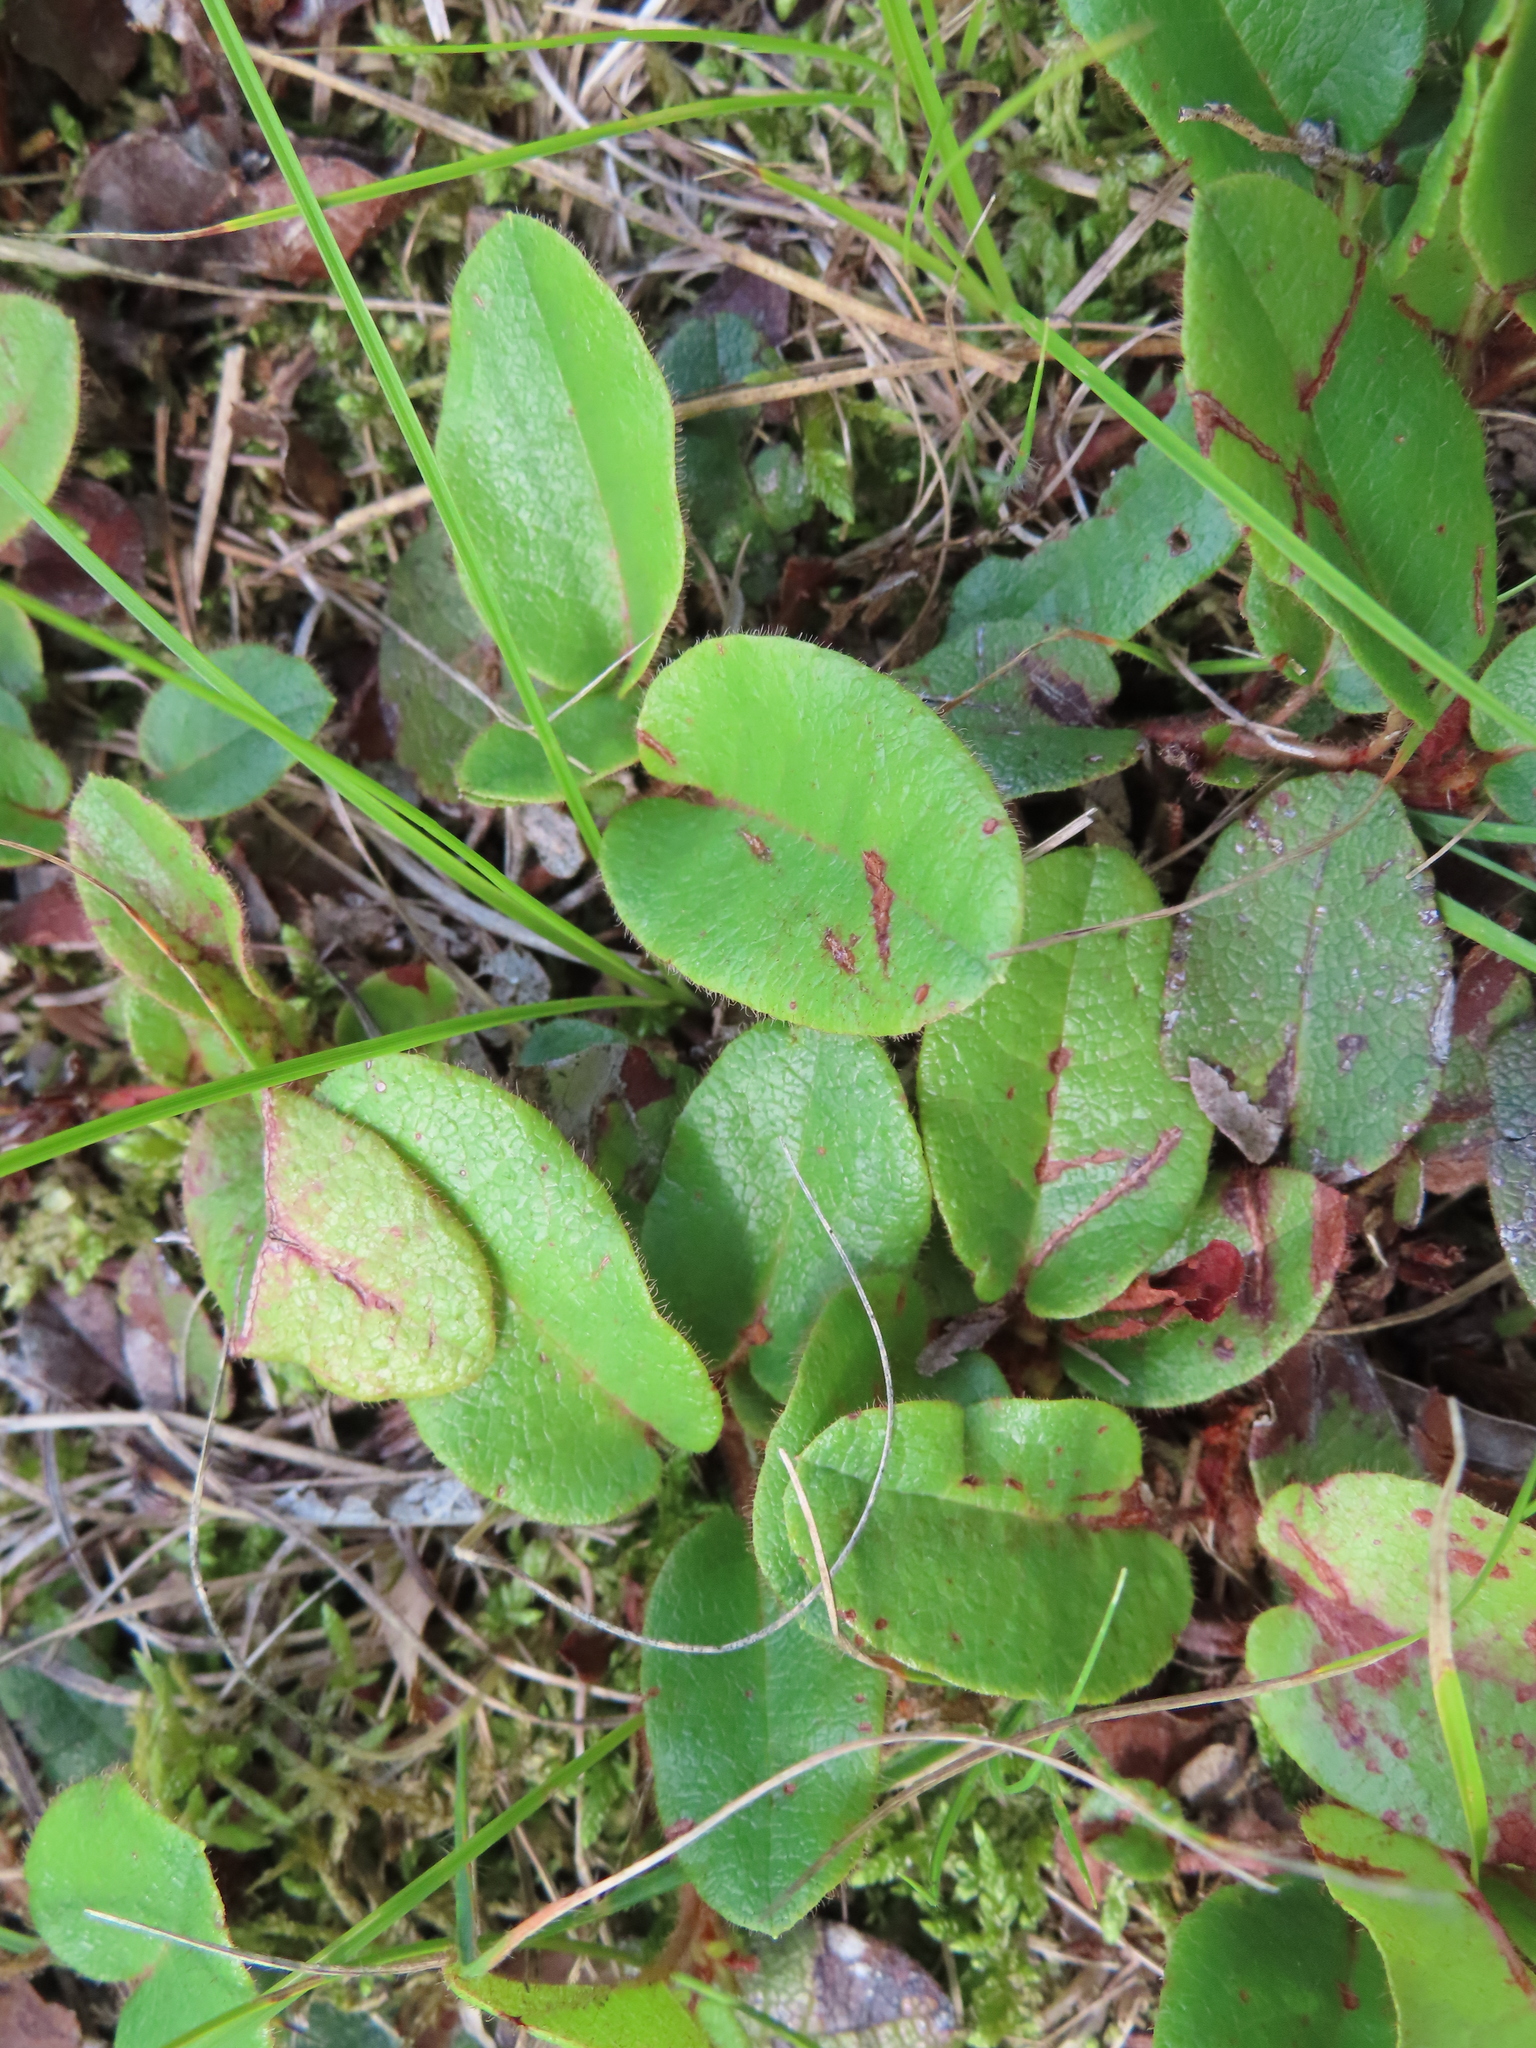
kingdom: Plantae
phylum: Tracheophyta
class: Magnoliopsida
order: Ericales
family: Ericaceae
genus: Epigaea
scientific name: Epigaea repens
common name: Gravelroot
